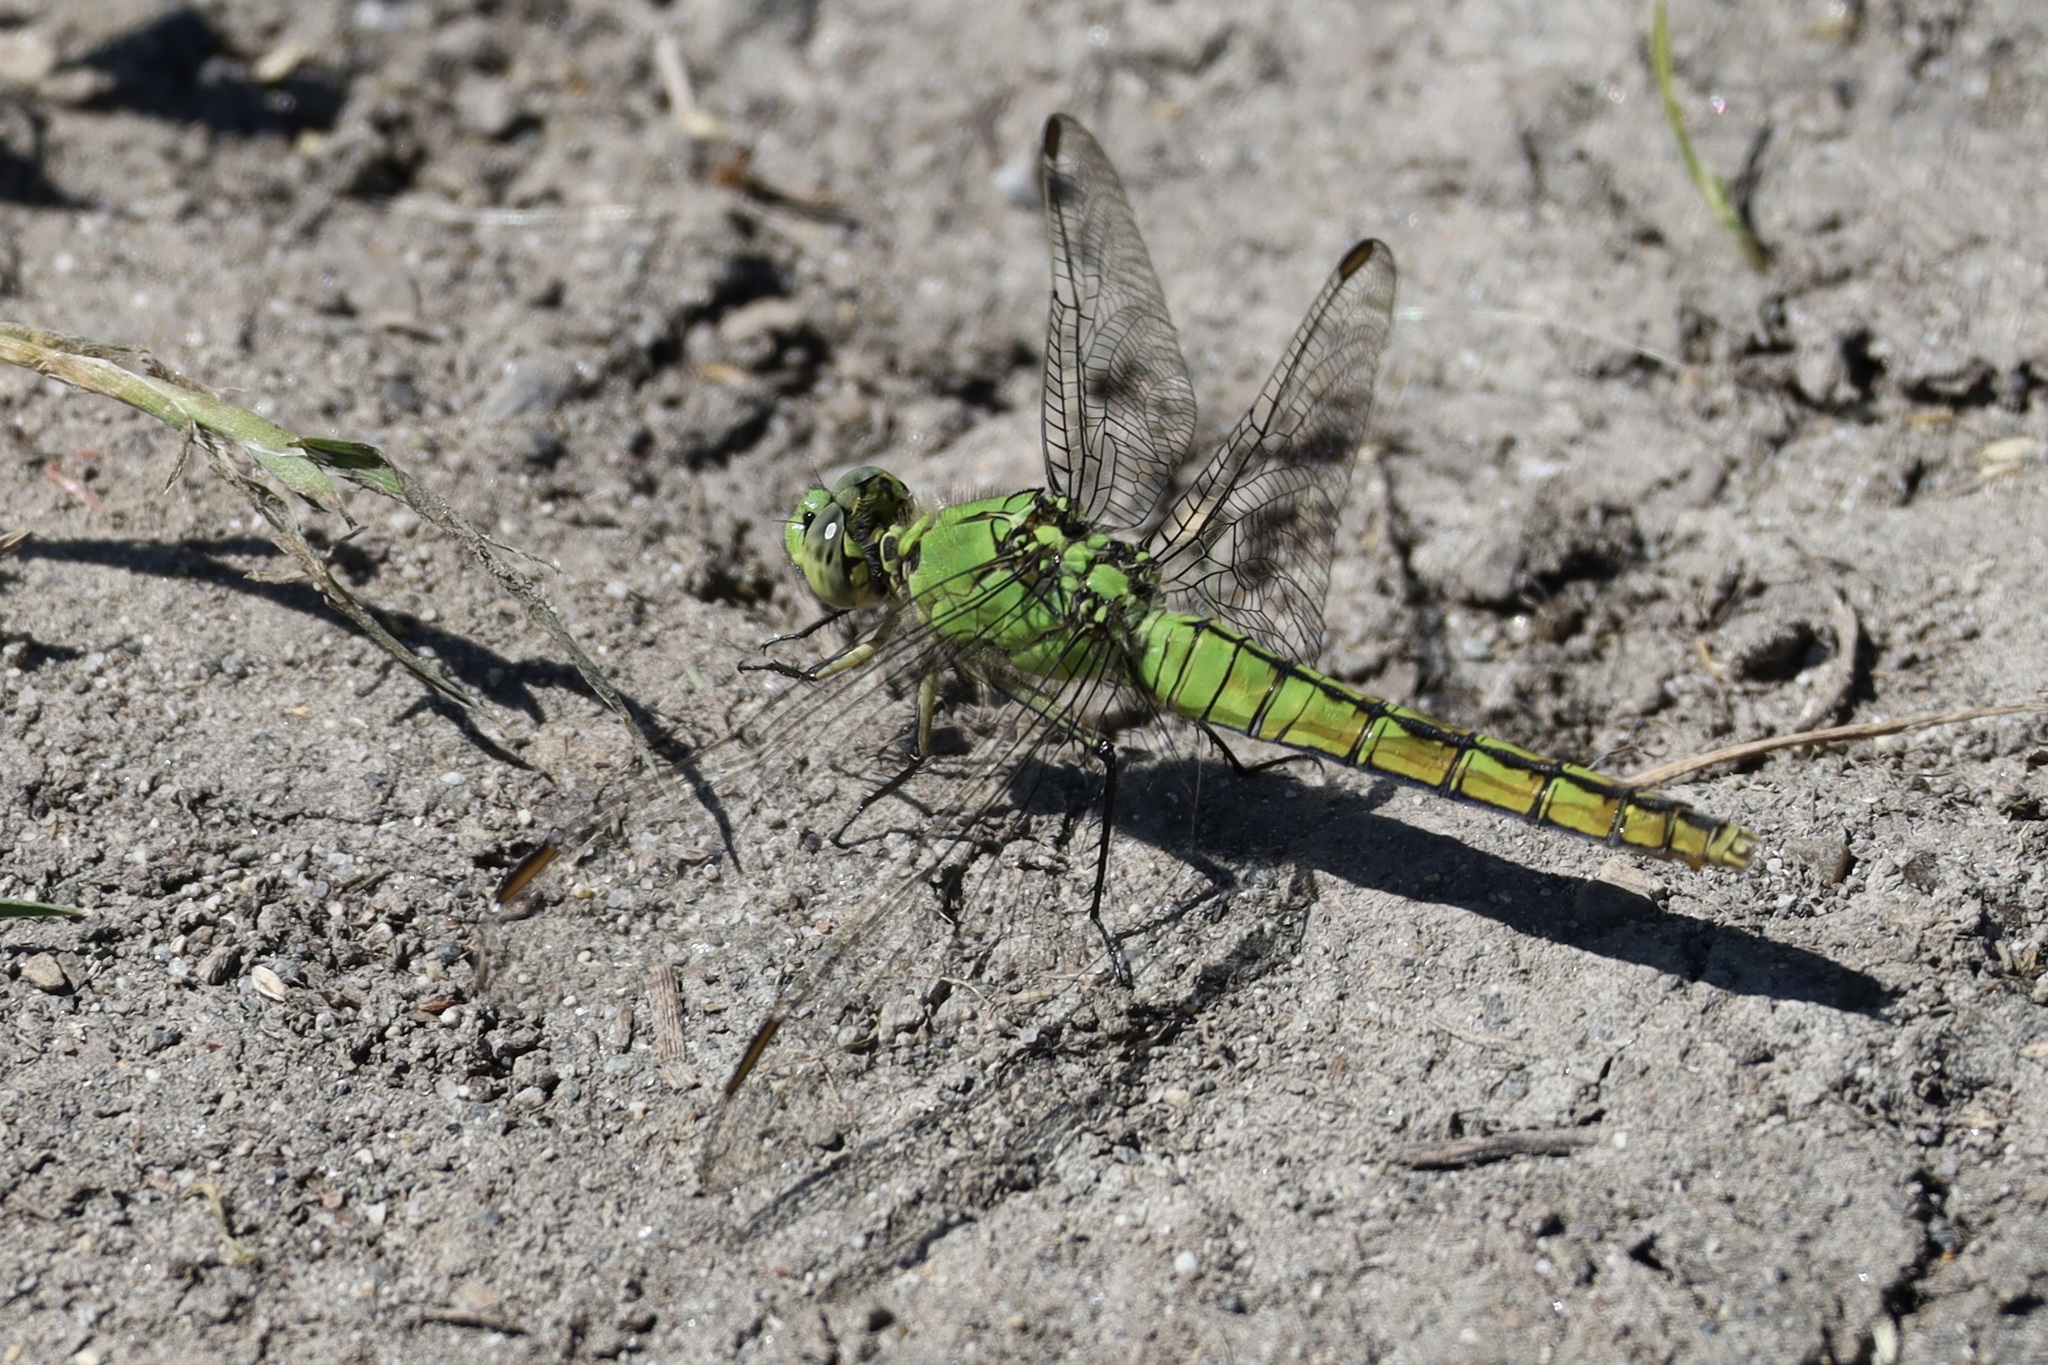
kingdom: Animalia
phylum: Arthropoda
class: Insecta
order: Odonata
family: Libellulidae
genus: Erythemis
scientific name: Erythemis collocata
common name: Western pondhawk
